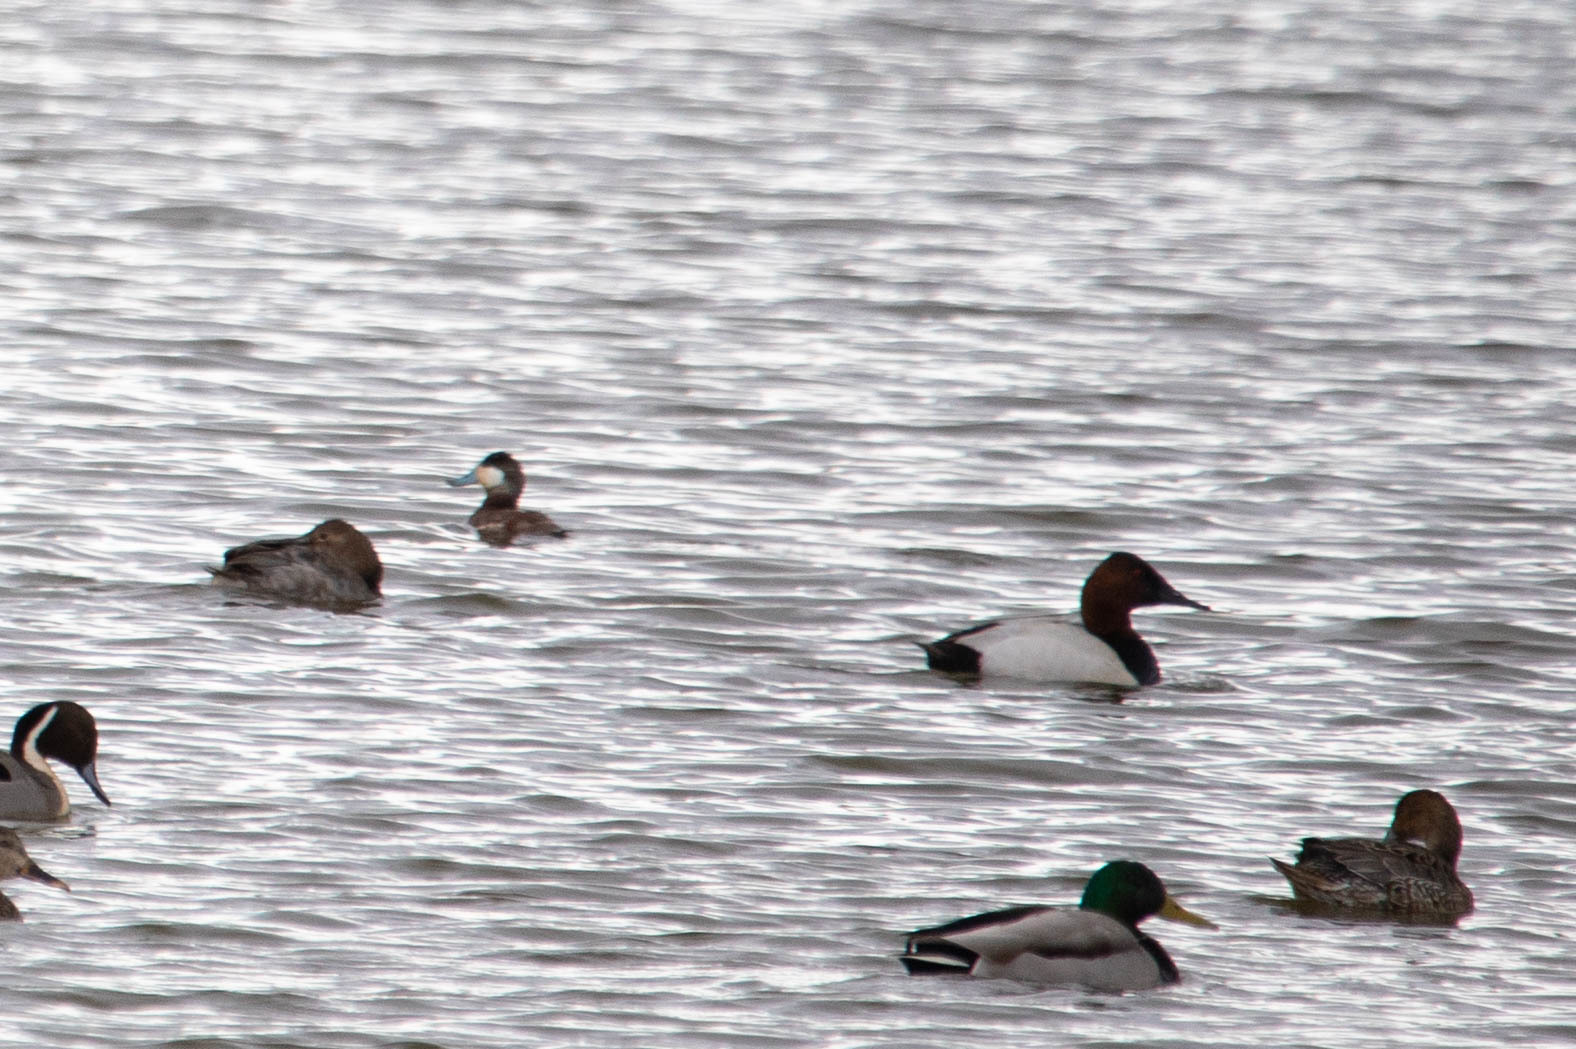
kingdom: Animalia
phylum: Chordata
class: Aves
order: Anseriformes
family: Anatidae
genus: Aythya
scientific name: Aythya valisineria
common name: Canvasback
